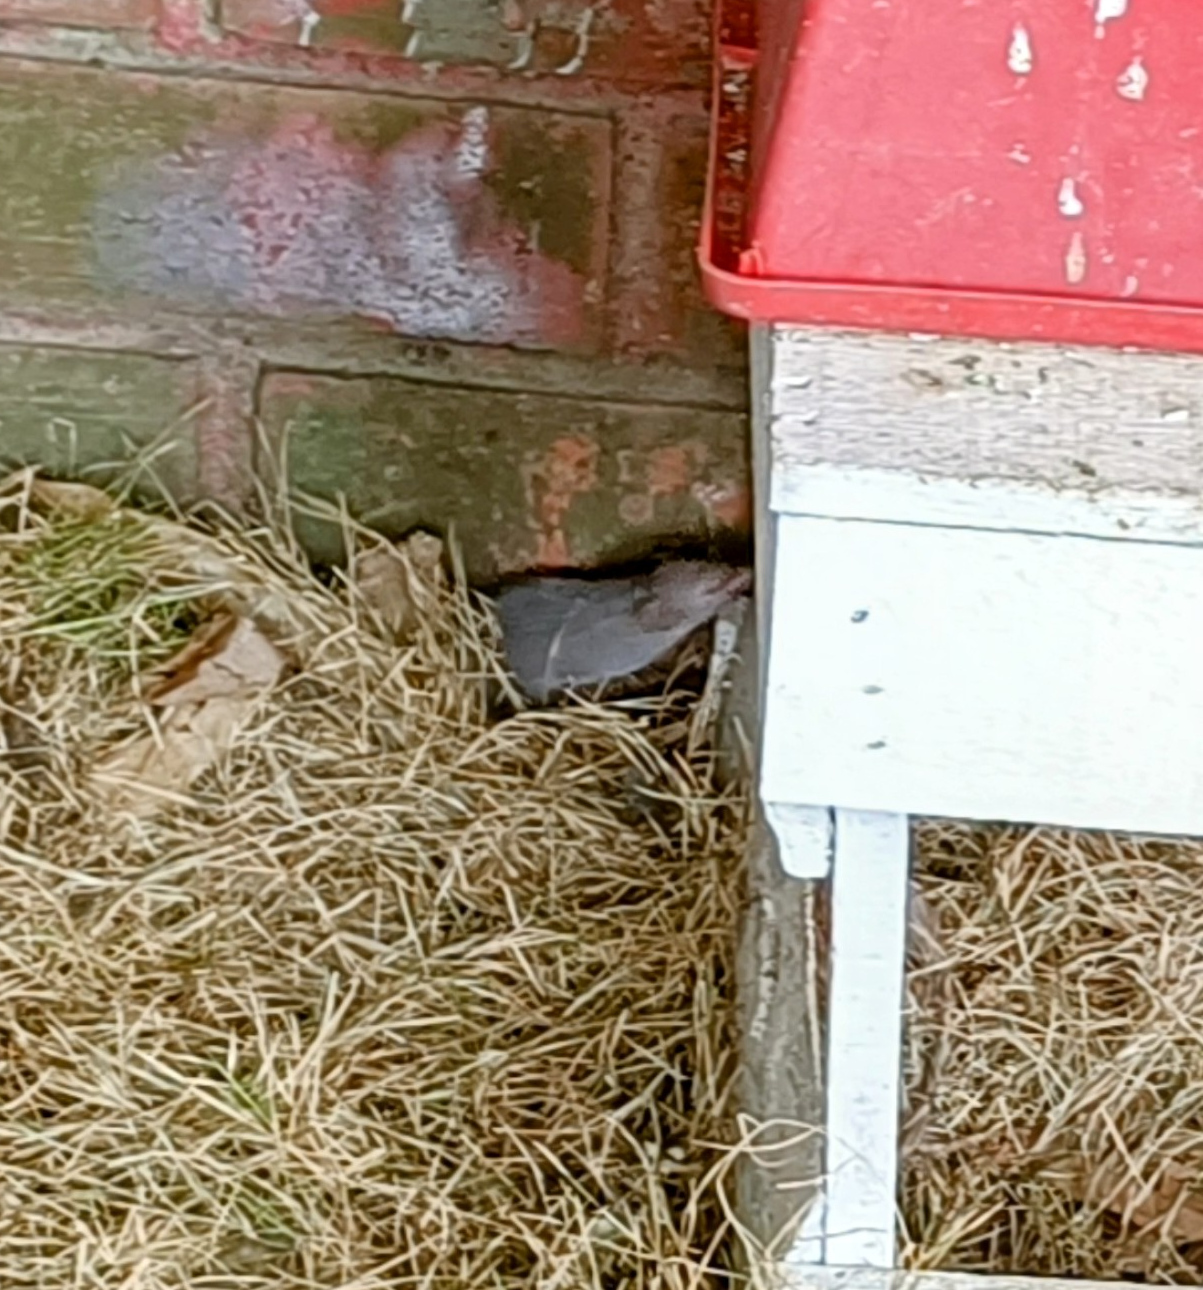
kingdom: Animalia
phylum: Chordata
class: Mammalia
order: Soricomorpha
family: Soricidae
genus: Suncus
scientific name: Suncus murinus
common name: Asian house shrew
